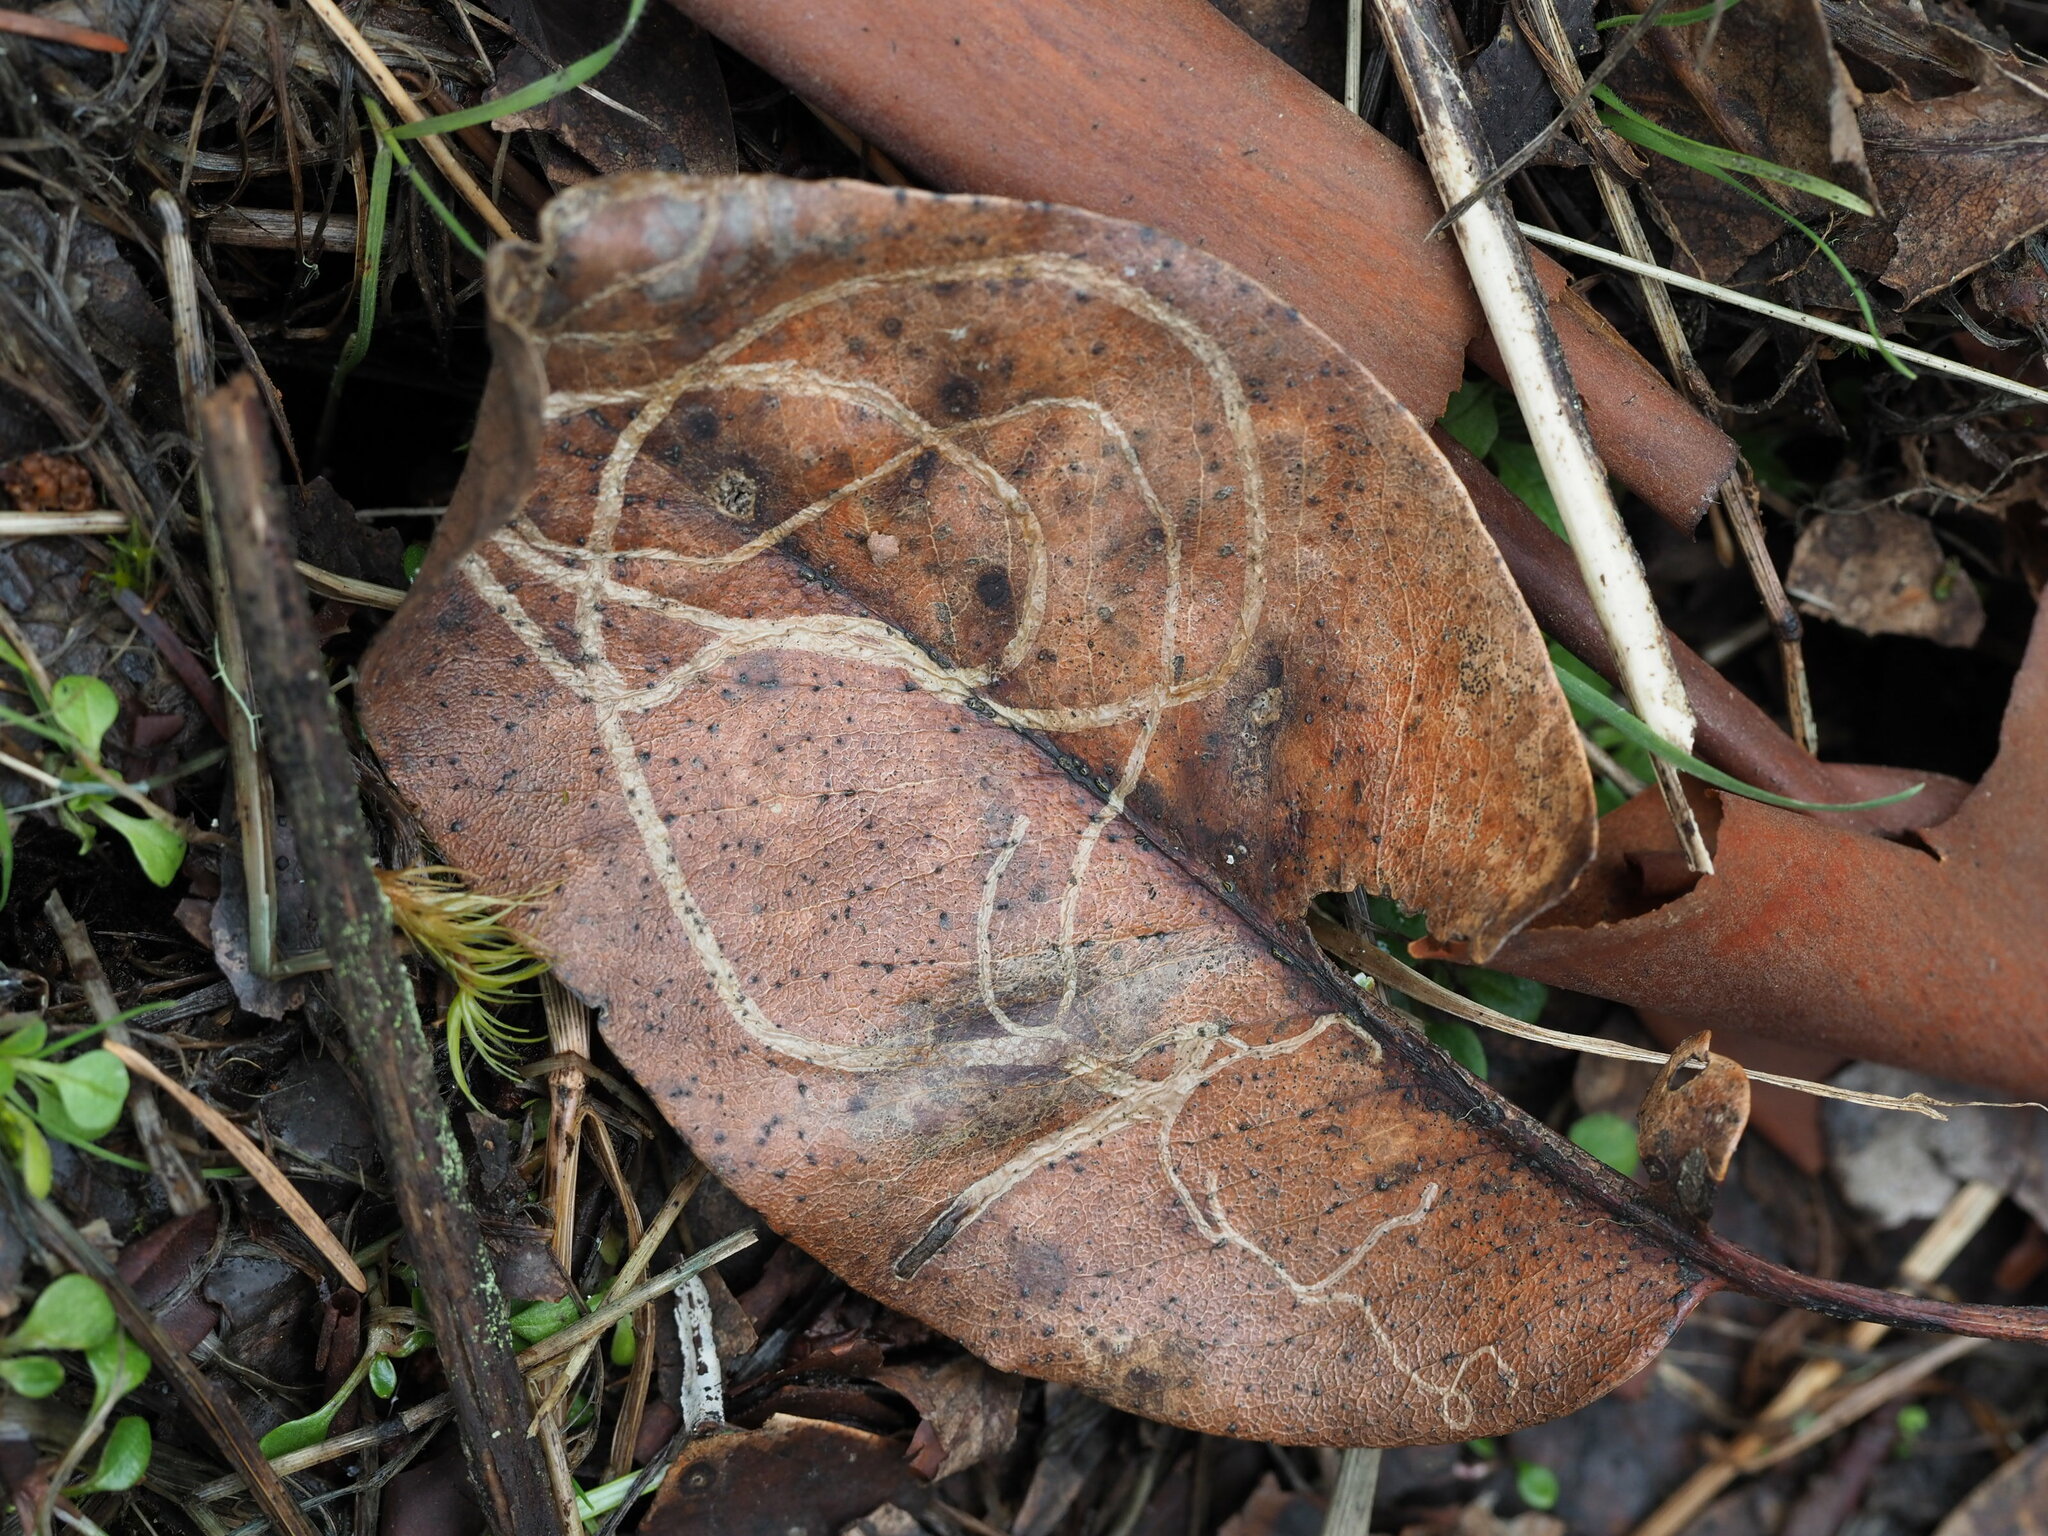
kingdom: Animalia
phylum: Arthropoda
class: Insecta
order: Lepidoptera
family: Gracillariidae
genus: Marmara
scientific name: Marmara arbutiella
